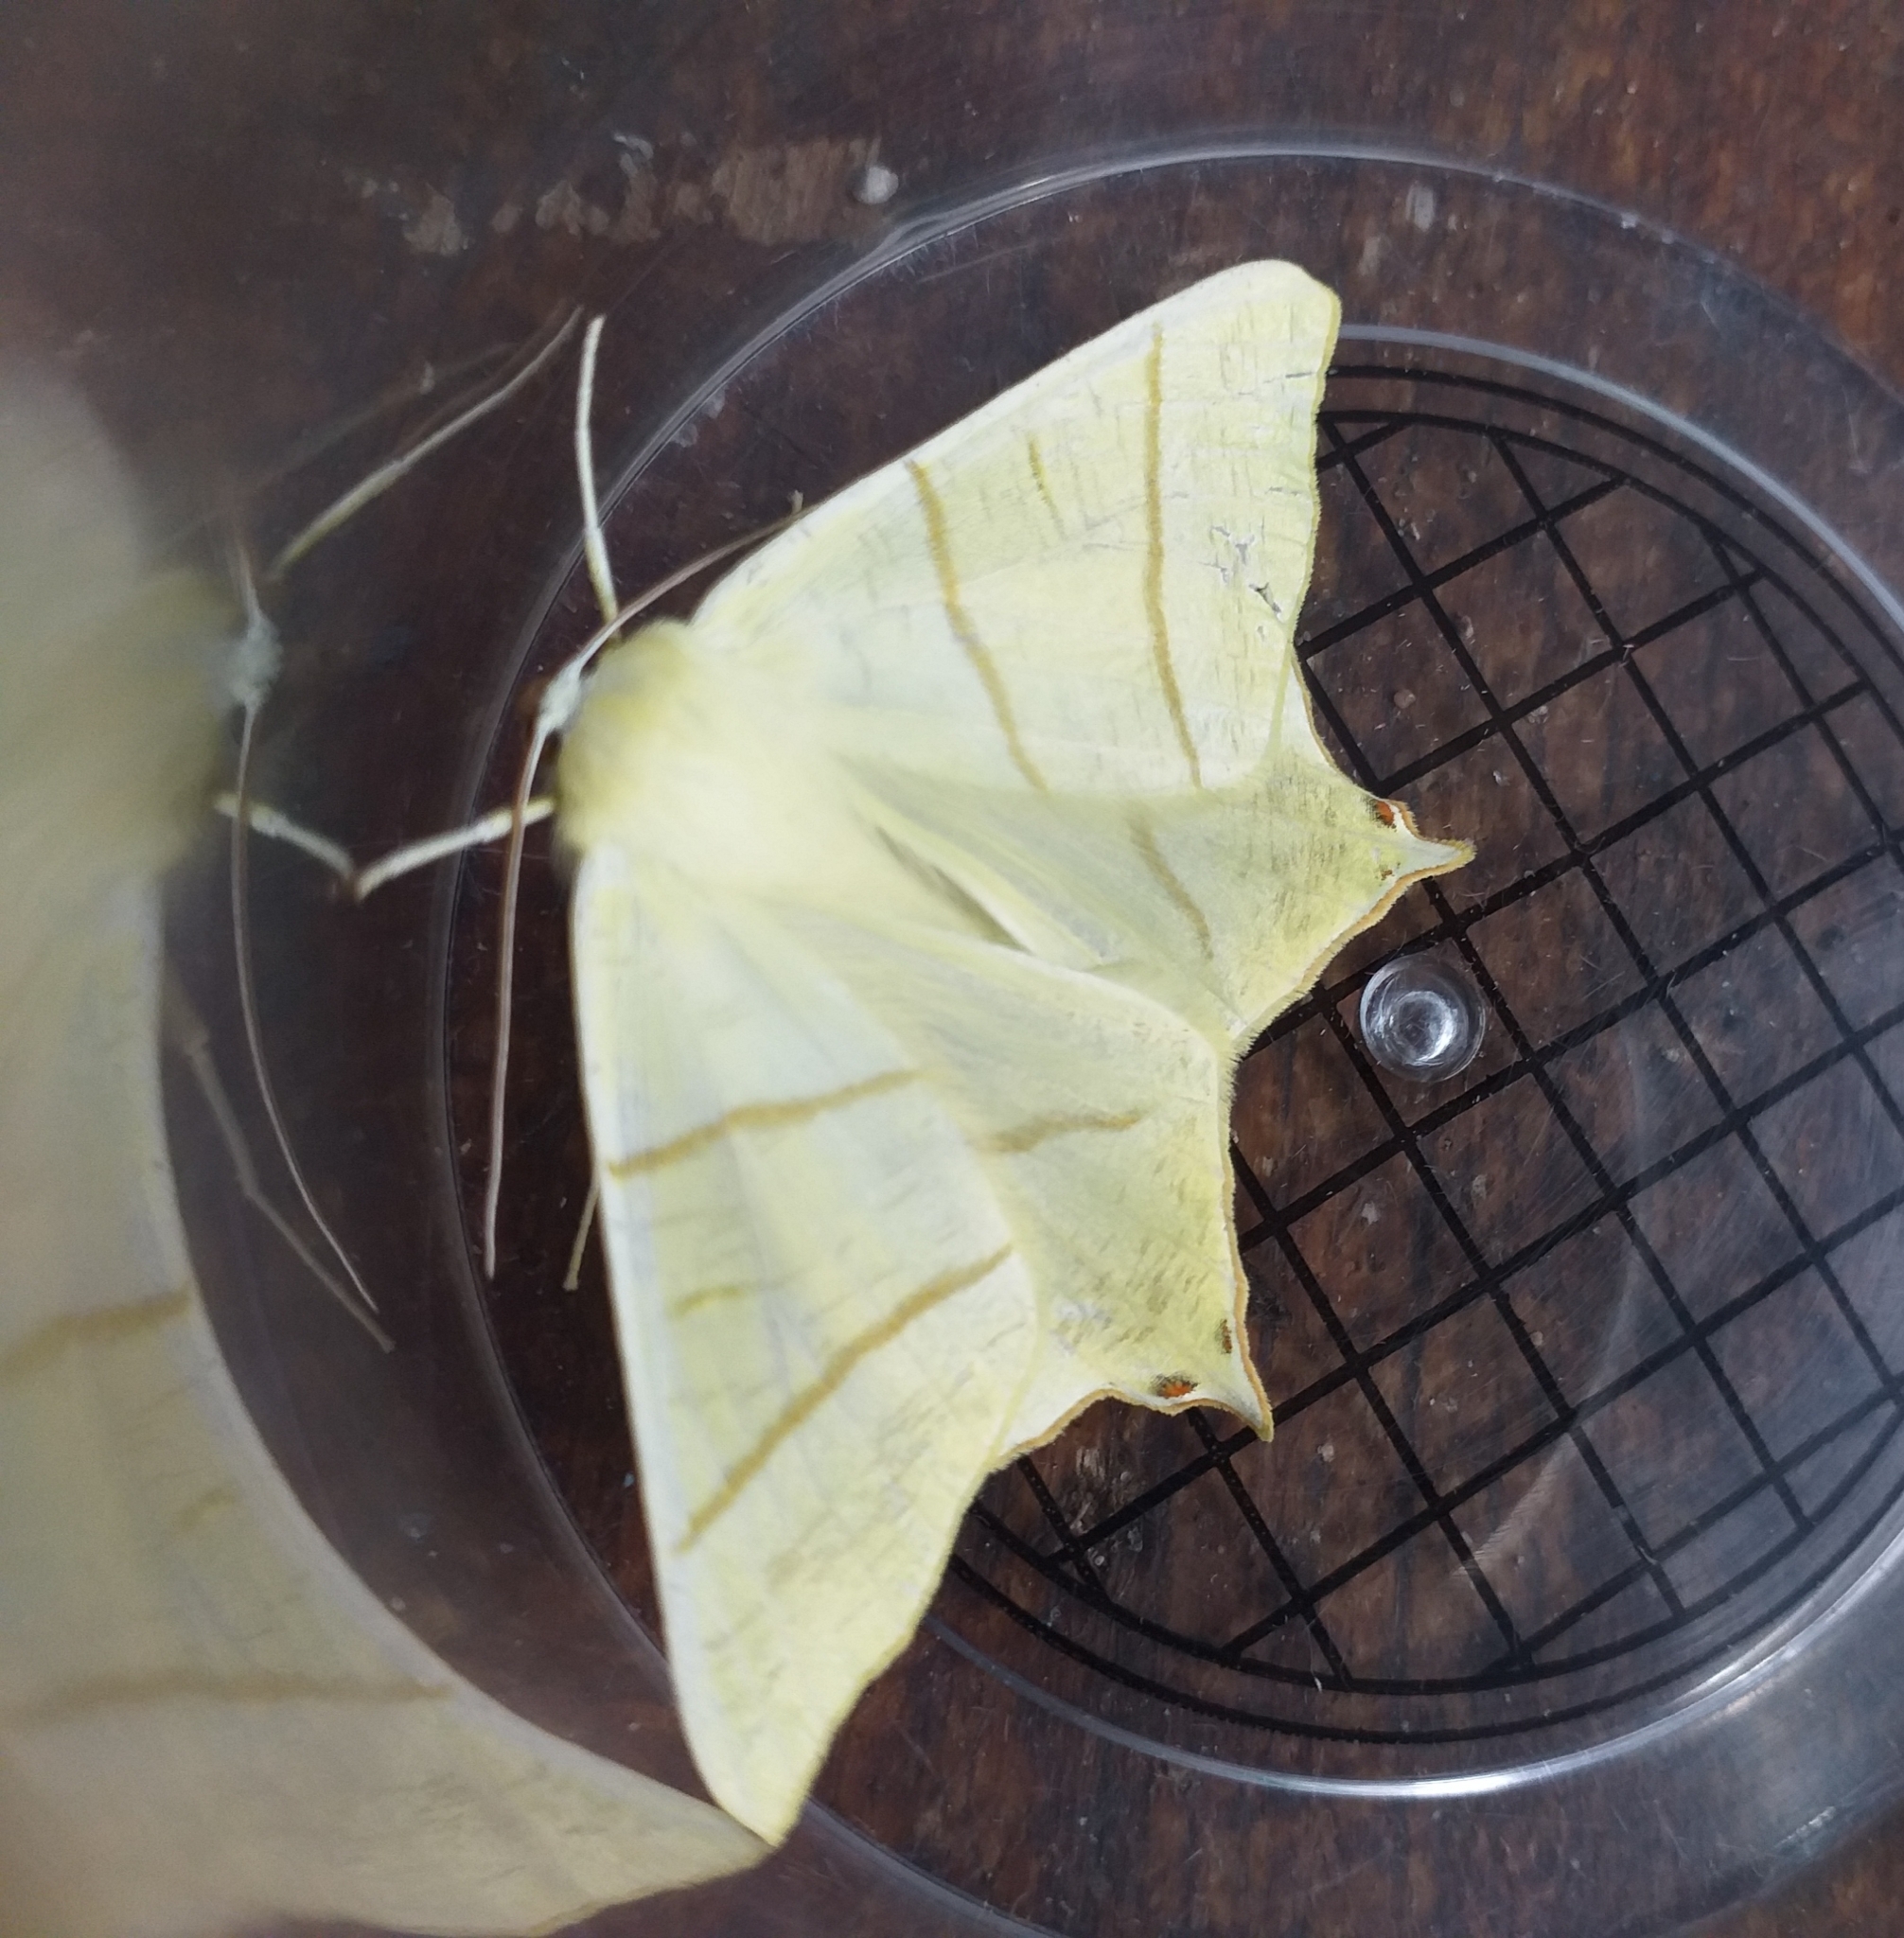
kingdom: Animalia
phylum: Arthropoda
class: Insecta
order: Lepidoptera
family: Geometridae
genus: Ourapteryx
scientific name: Ourapteryx sambucaria
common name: Swallow-tailed moth
